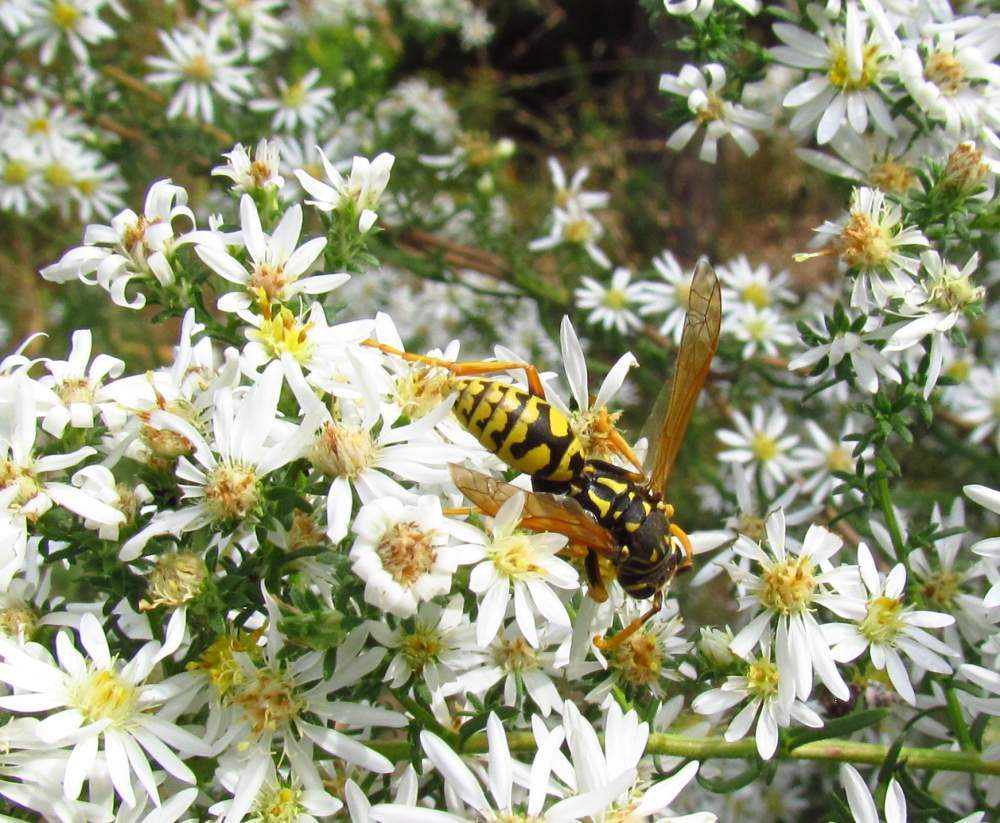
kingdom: Animalia
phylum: Arthropoda
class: Insecta
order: Hymenoptera
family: Eumenidae
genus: Polistes
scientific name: Polistes dominula
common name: Paper wasp
